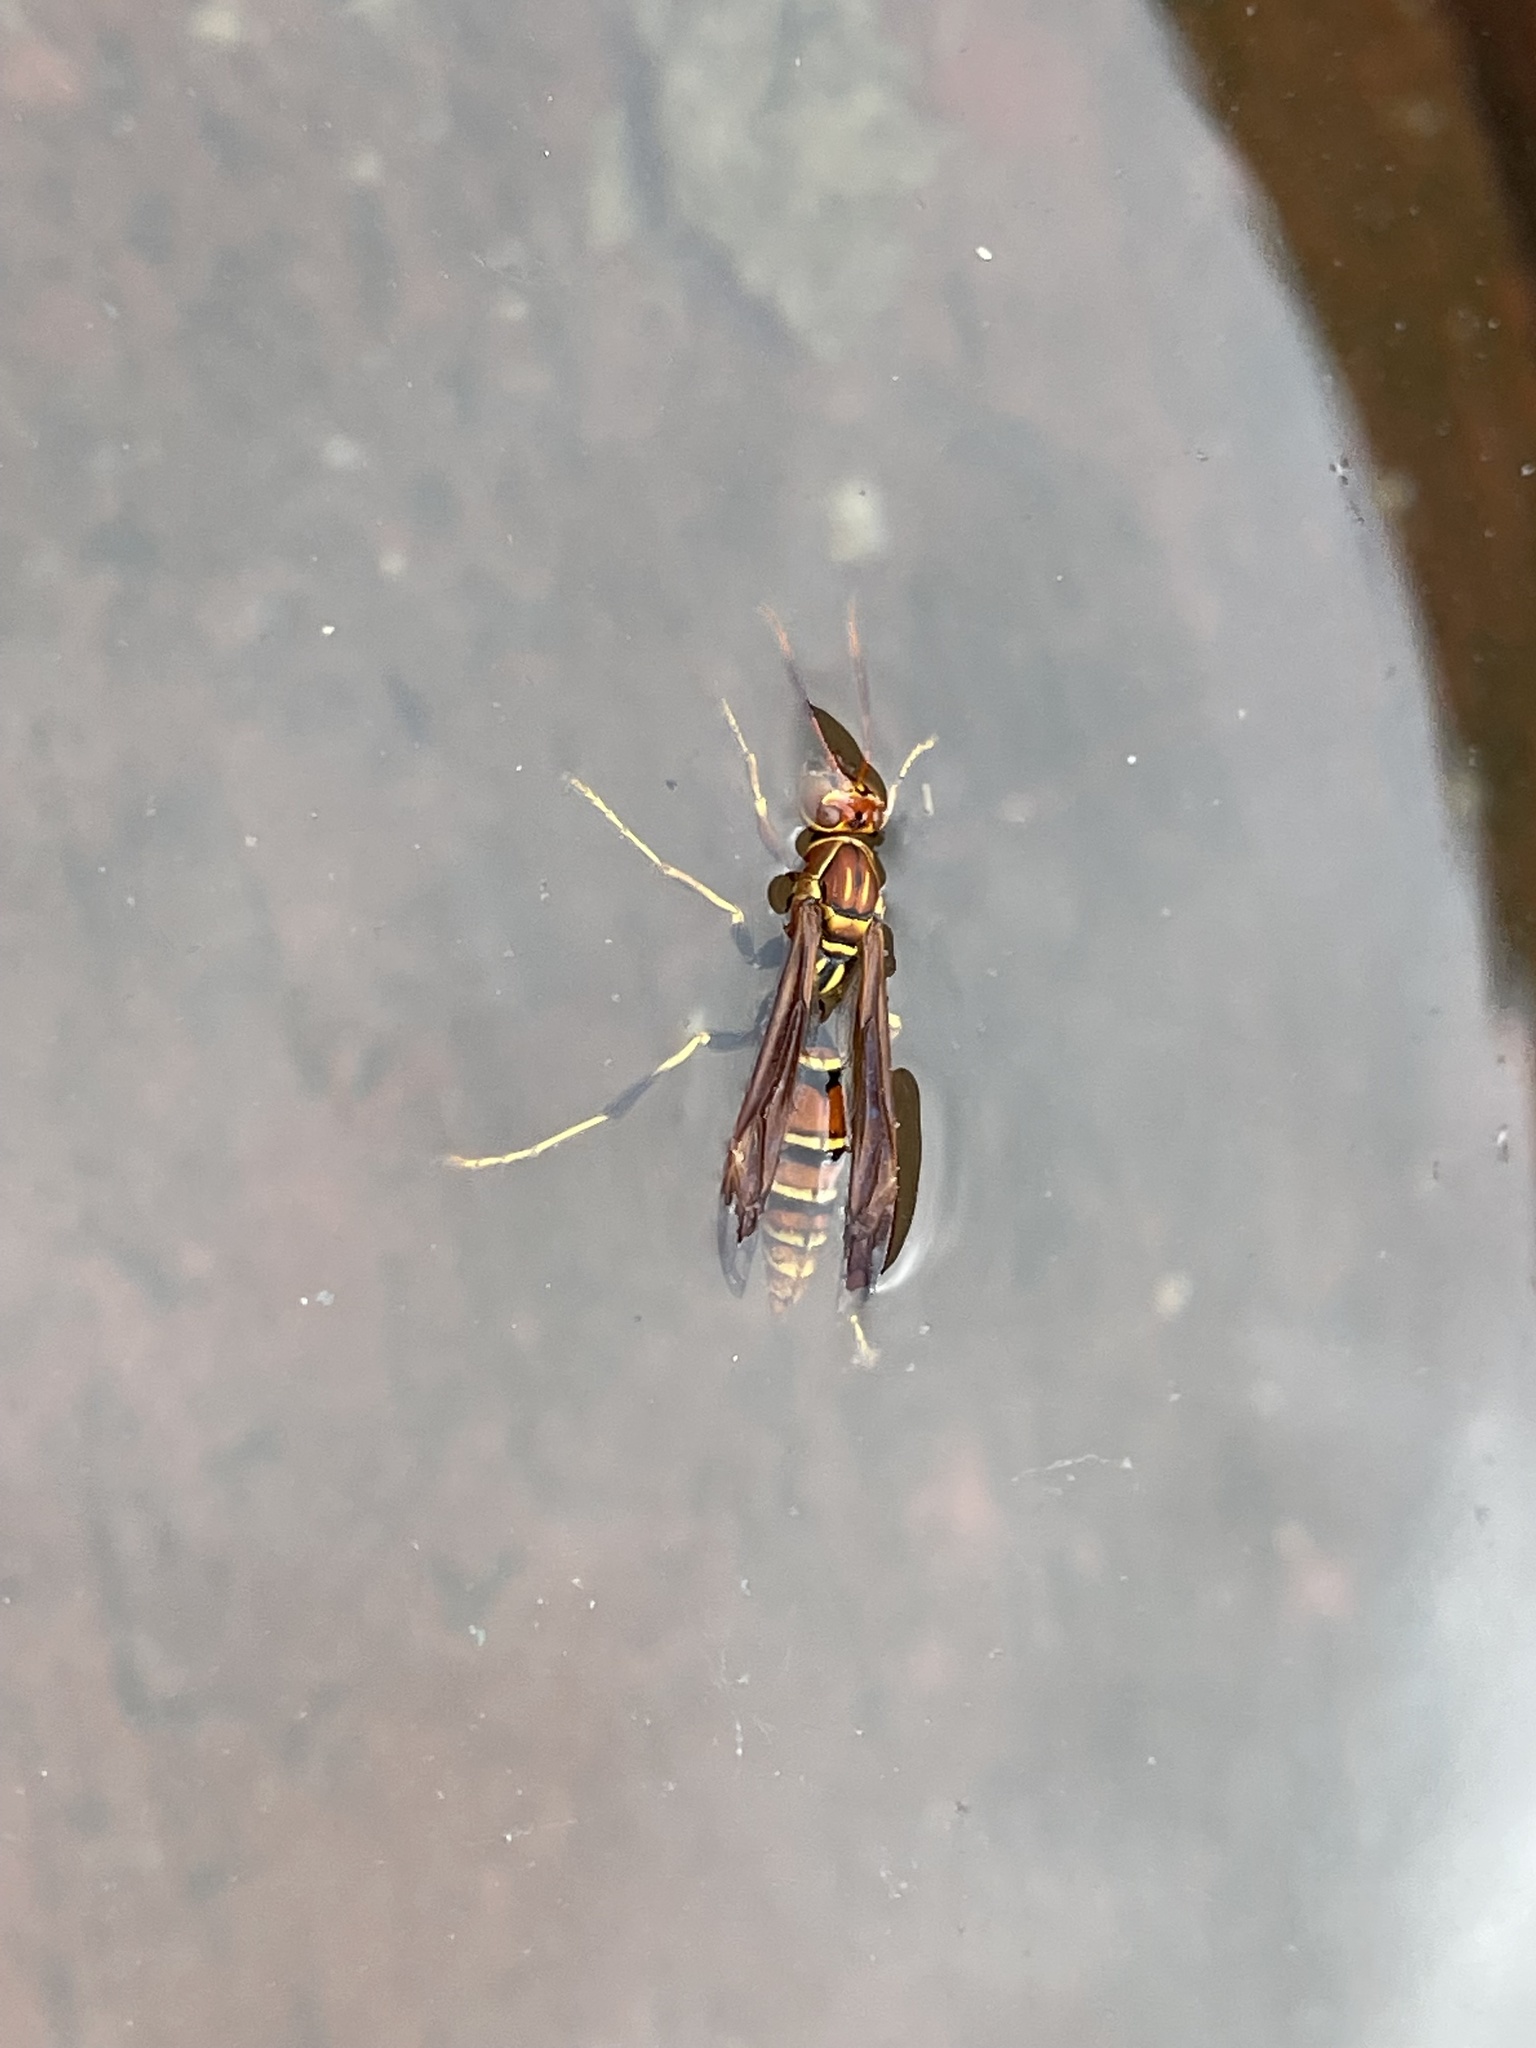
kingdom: Animalia
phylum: Arthropoda
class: Insecta
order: Hymenoptera
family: Eumenidae
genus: Polistes
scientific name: Polistes lineonotus
